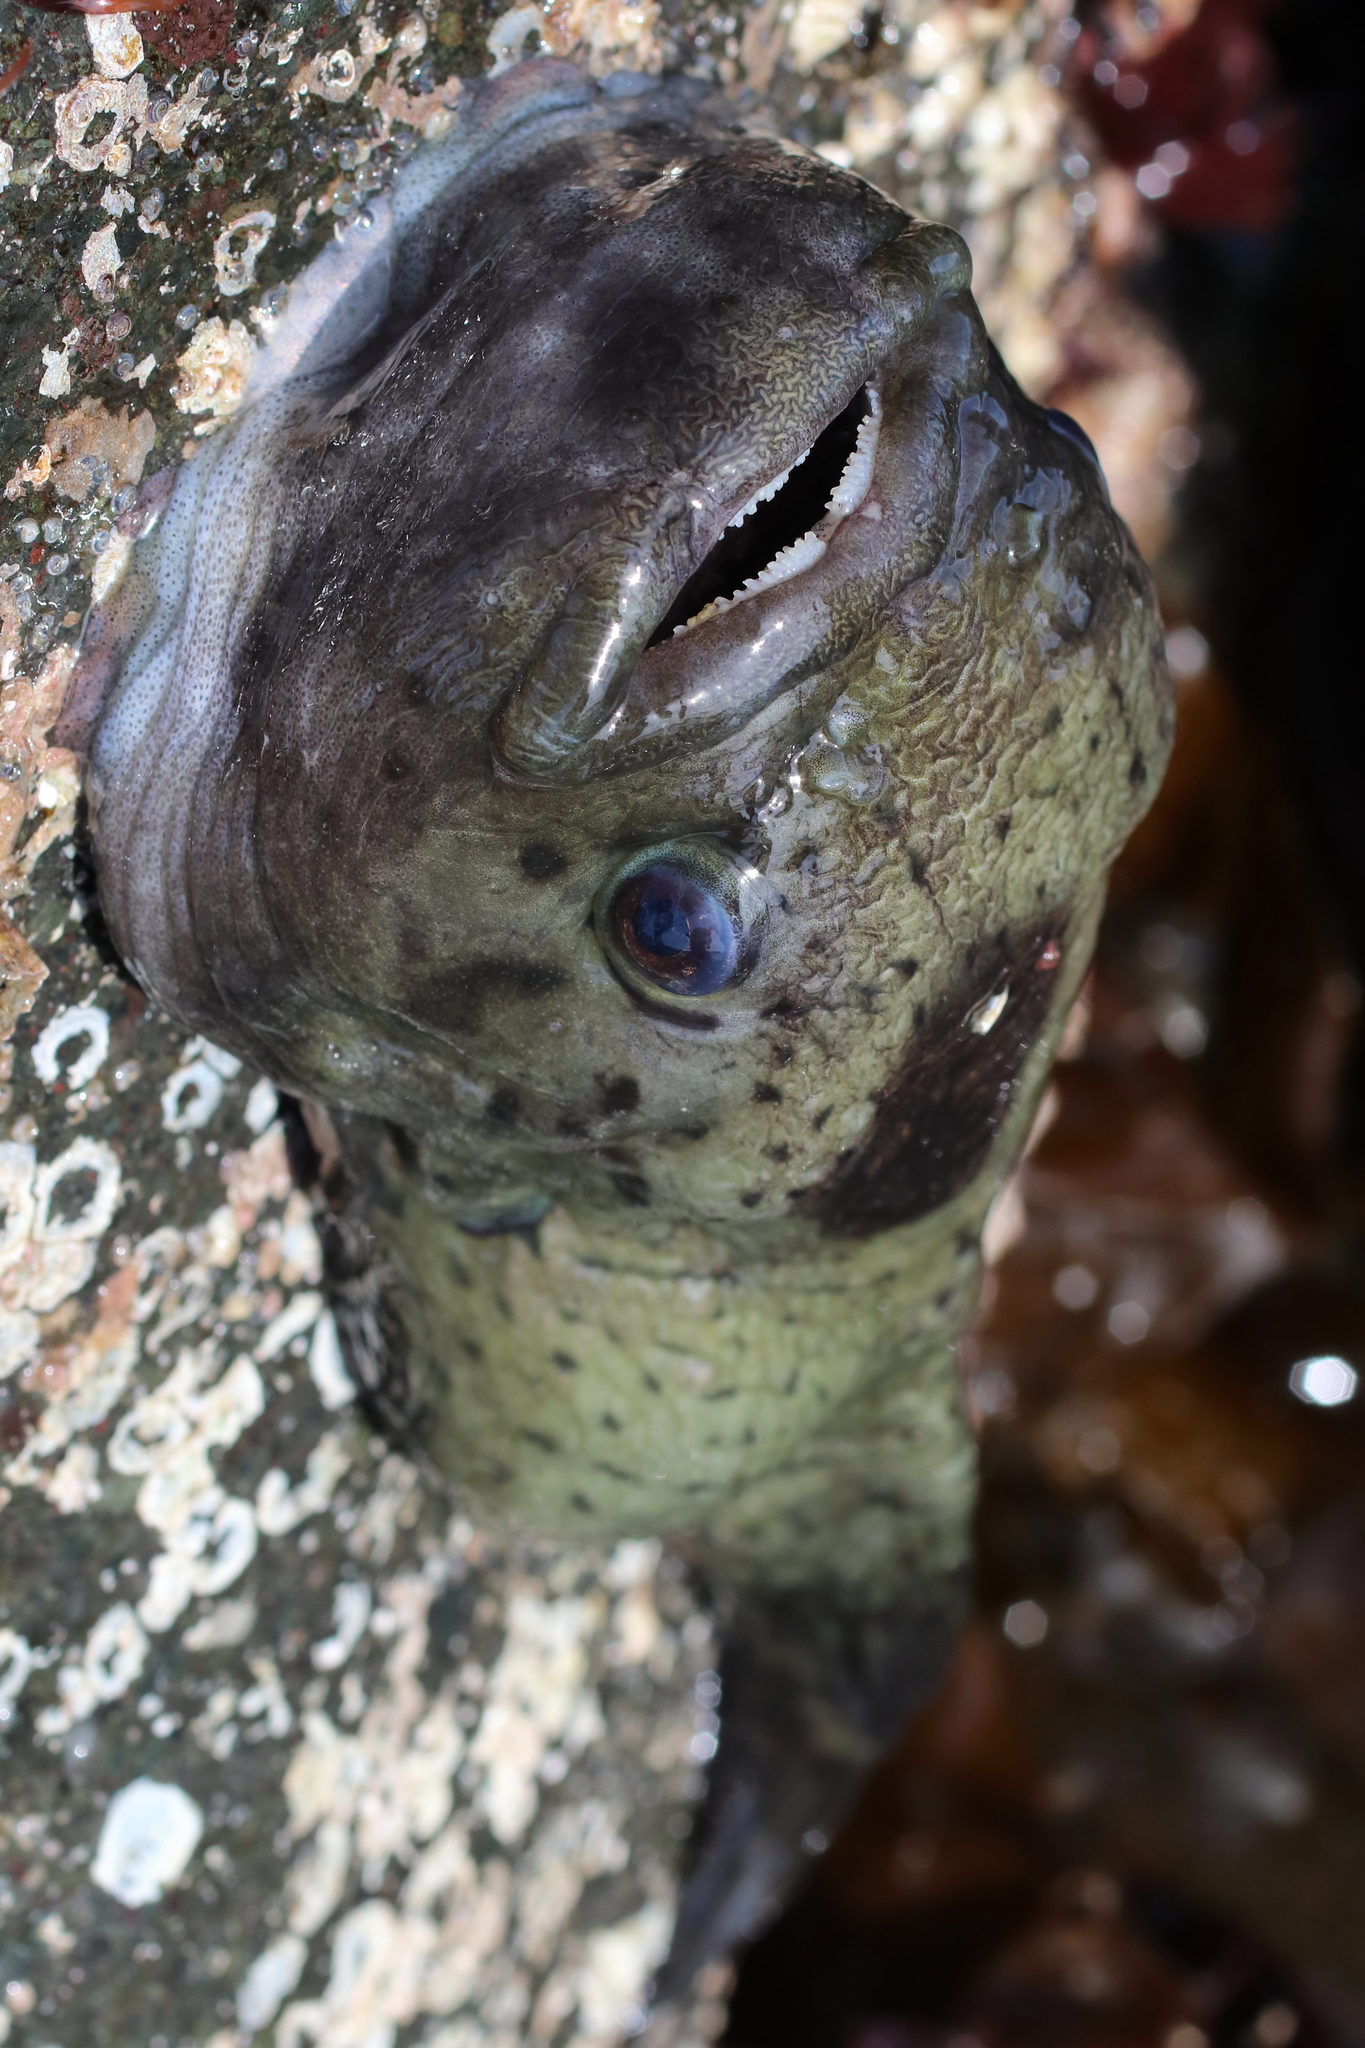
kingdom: Animalia
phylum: Chordata
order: Scorpaeniformes
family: Cyclopteridae
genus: Aptocyclus
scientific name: Aptocyclus ventricosus
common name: Smooth lumpsucker
